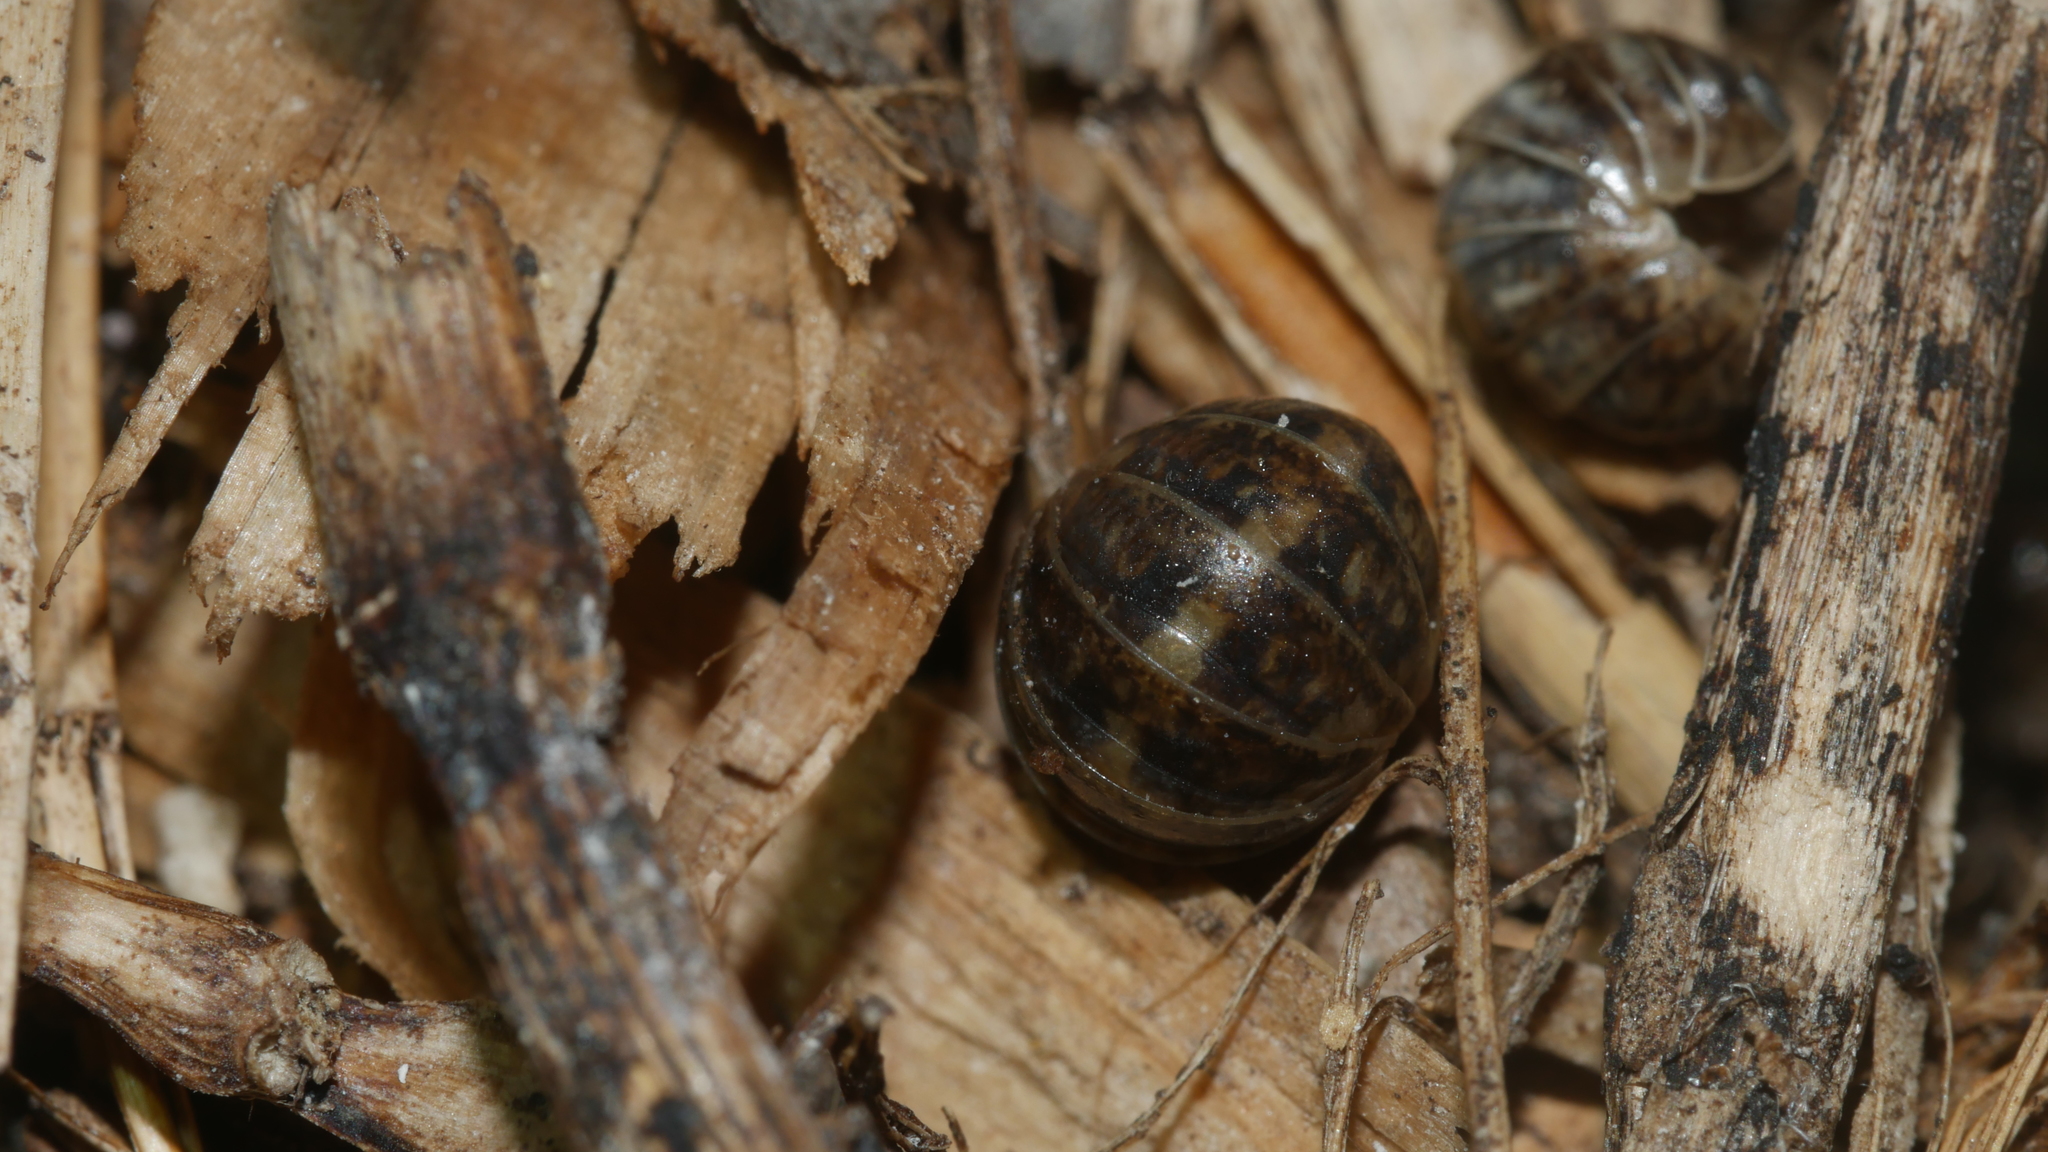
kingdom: Animalia
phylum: Arthropoda
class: Malacostraca
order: Isopoda
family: Armadillidiidae
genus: Armadillidium
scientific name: Armadillidium vulgare
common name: Common pill woodlouse
